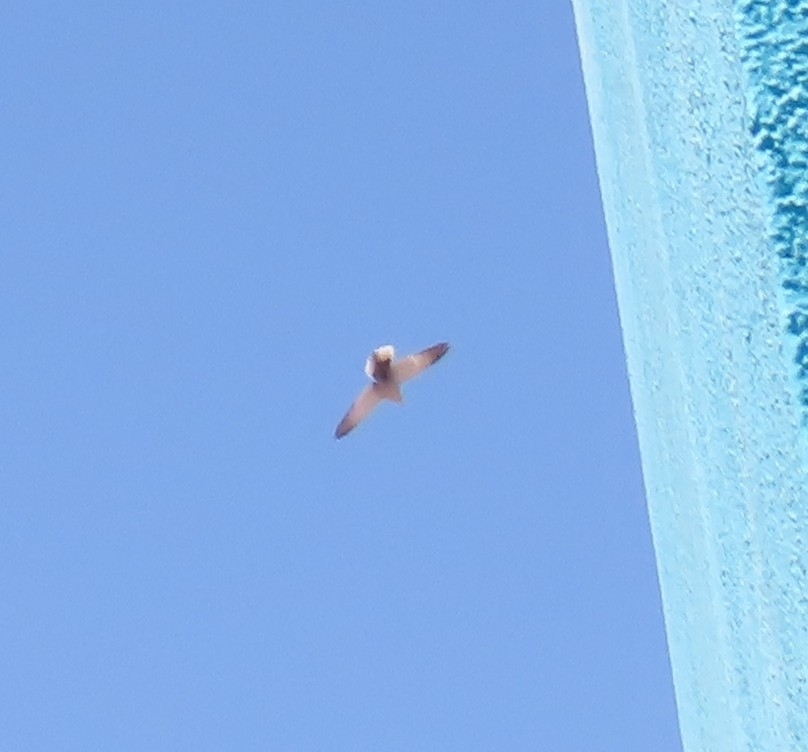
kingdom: Animalia
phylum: Chordata
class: Aves
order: Columbiformes
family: Columbidae
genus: Streptopelia
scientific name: Streptopelia decaocto
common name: Eurasian collared dove
